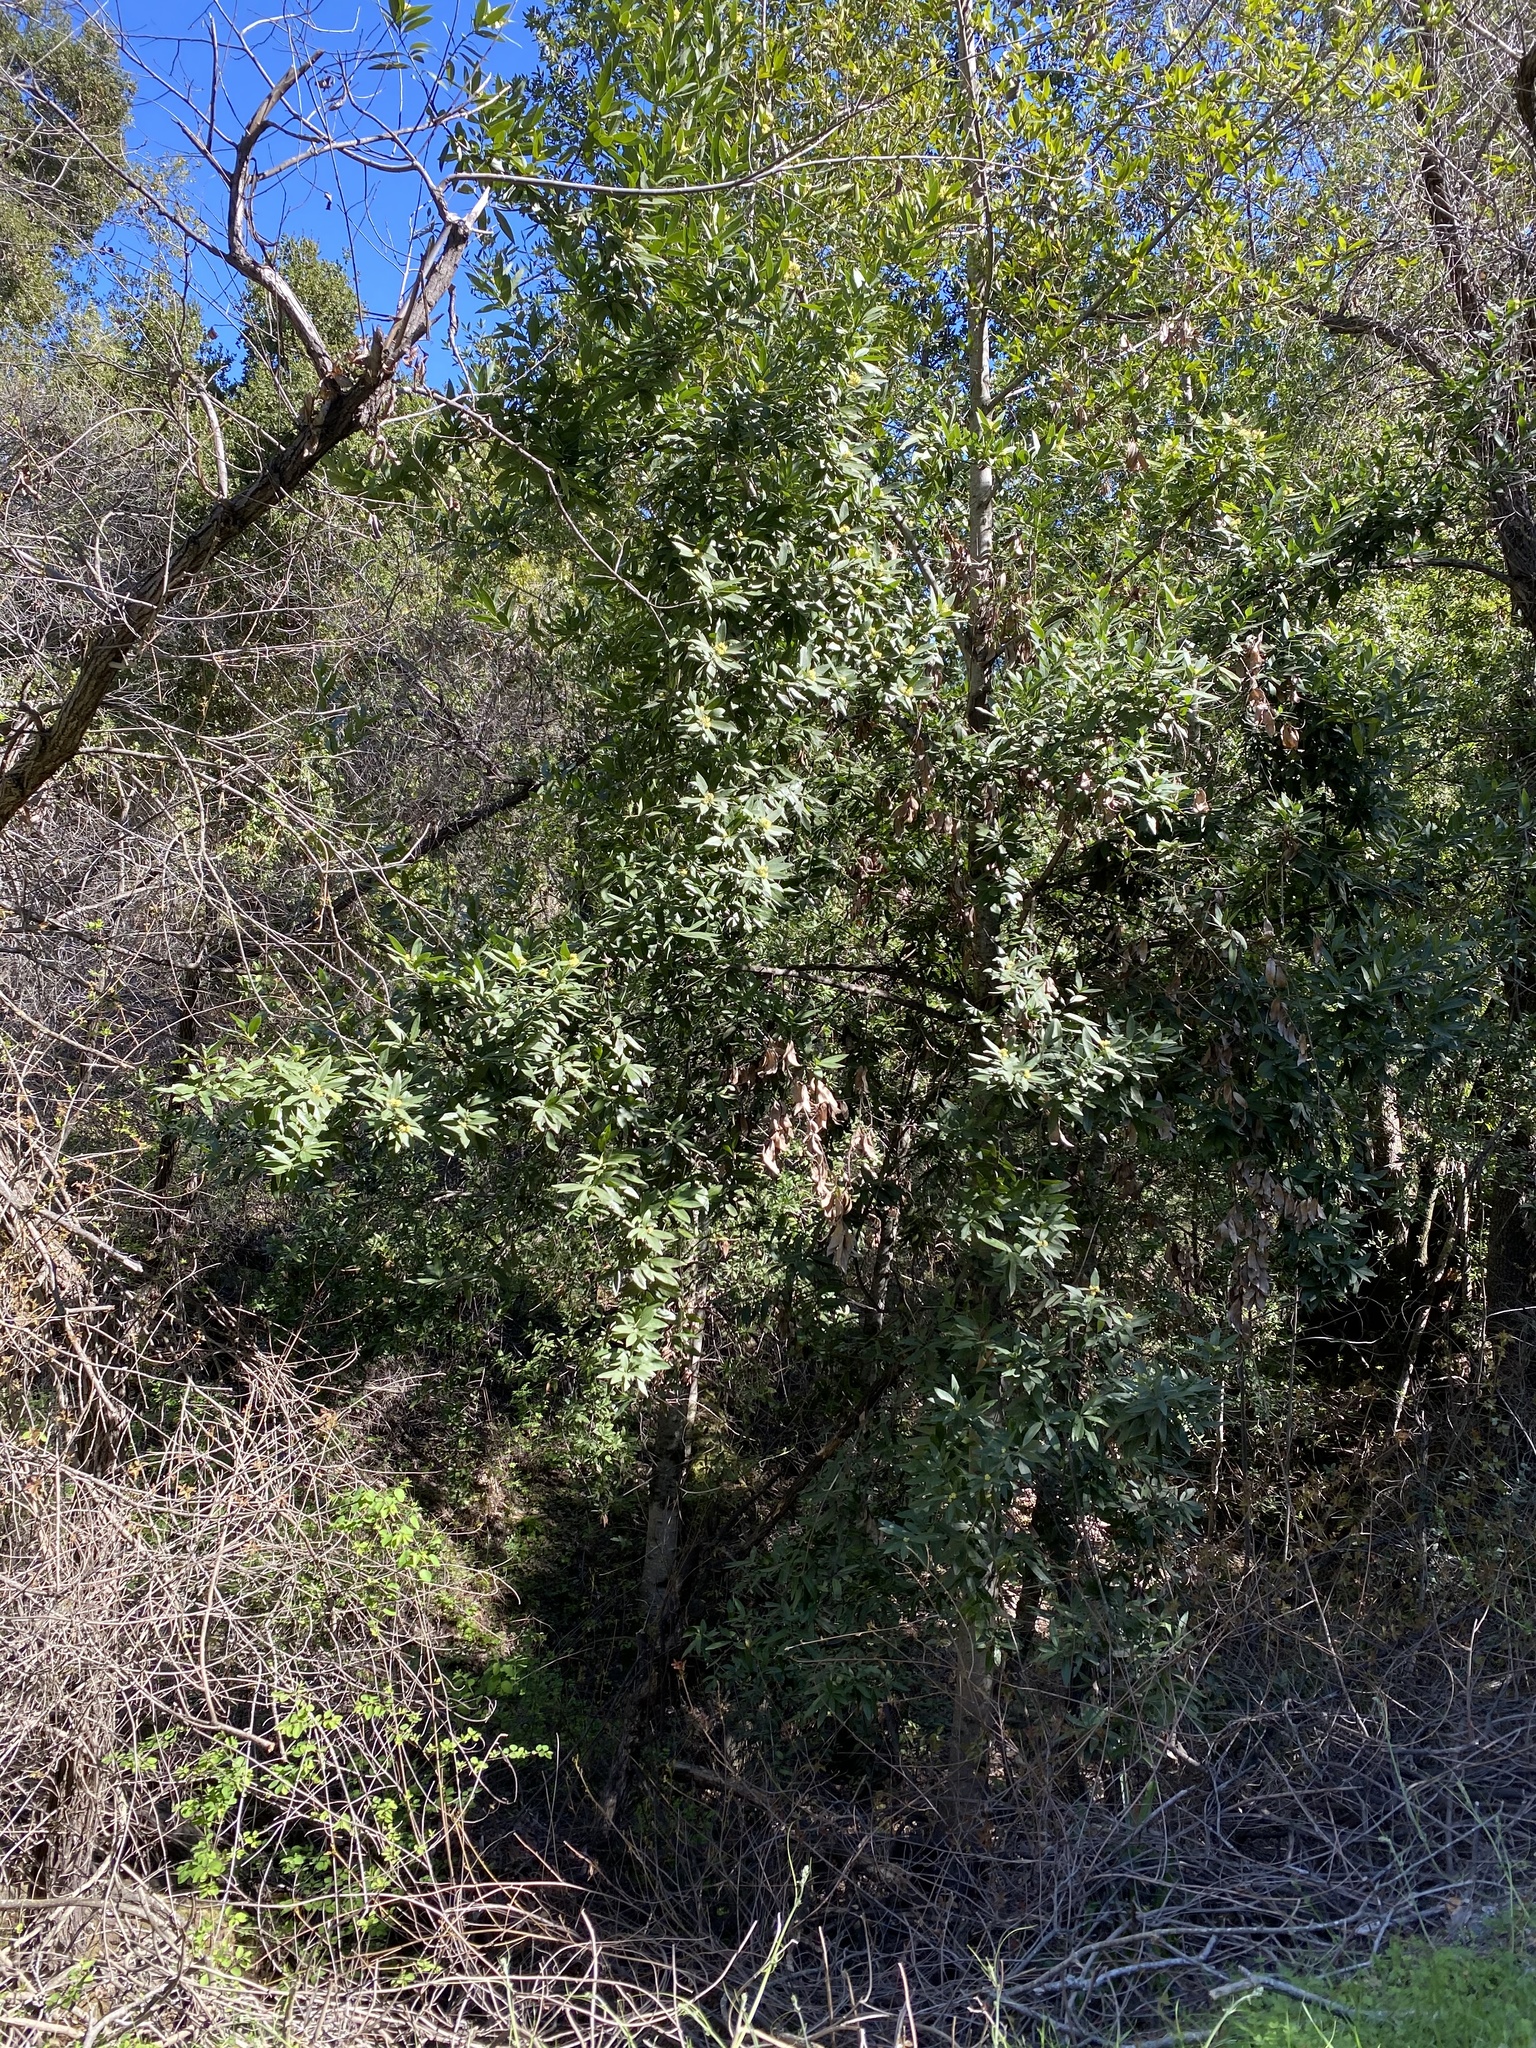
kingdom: Plantae
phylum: Tracheophyta
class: Magnoliopsida
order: Laurales
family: Lauraceae
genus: Umbellularia
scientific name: Umbellularia californica
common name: California bay
